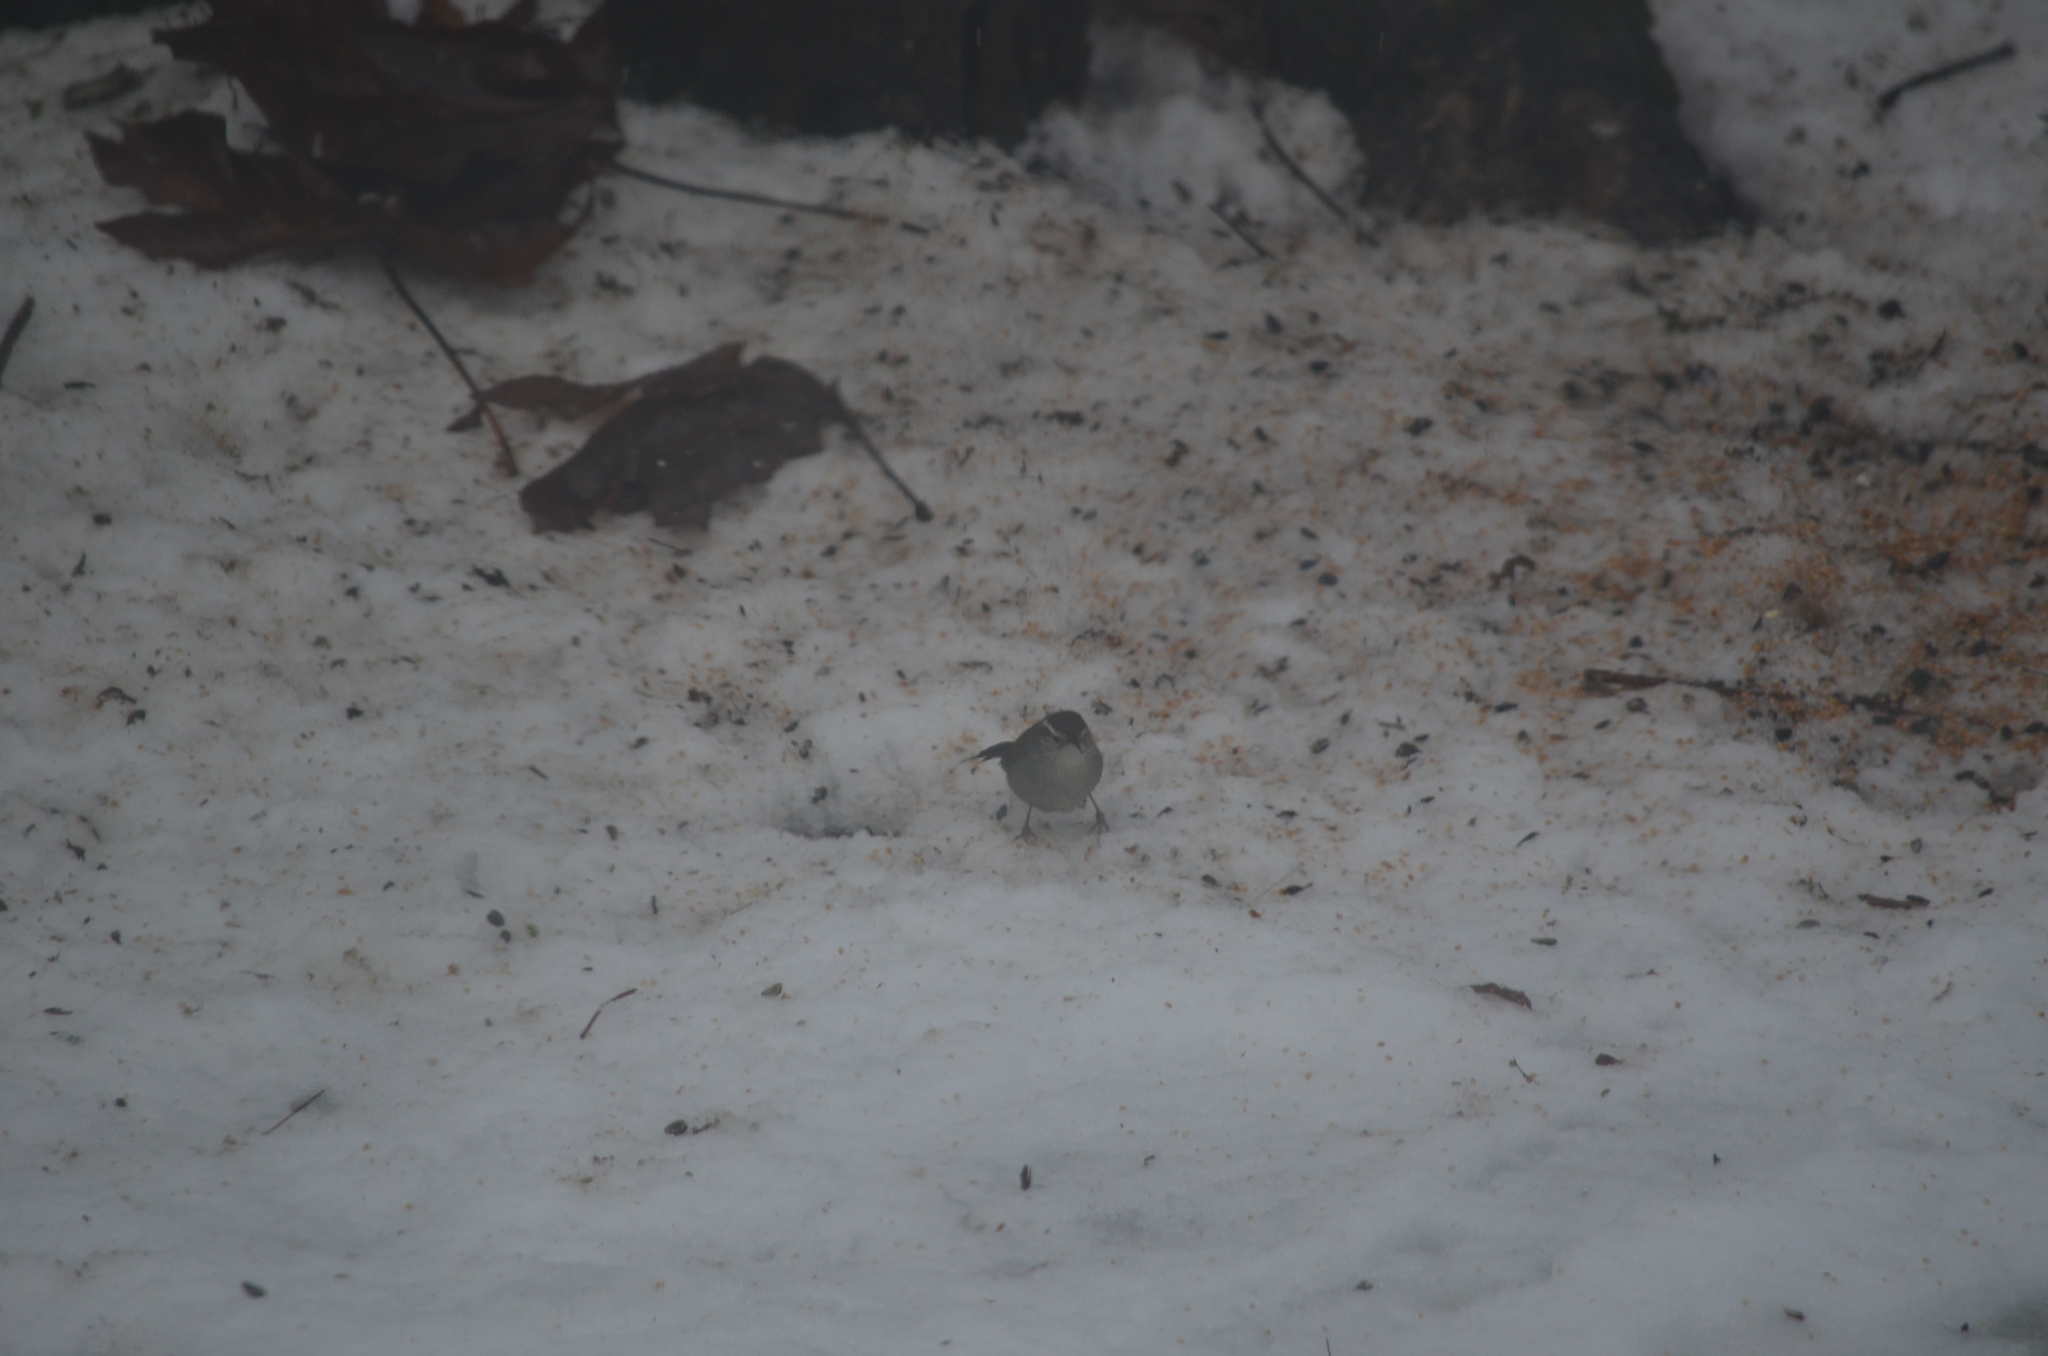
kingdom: Animalia
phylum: Chordata
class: Aves
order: Passeriformes
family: Troglodytidae
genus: Thryomanes
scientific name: Thryomanes bewickii
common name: Bewick's wren
